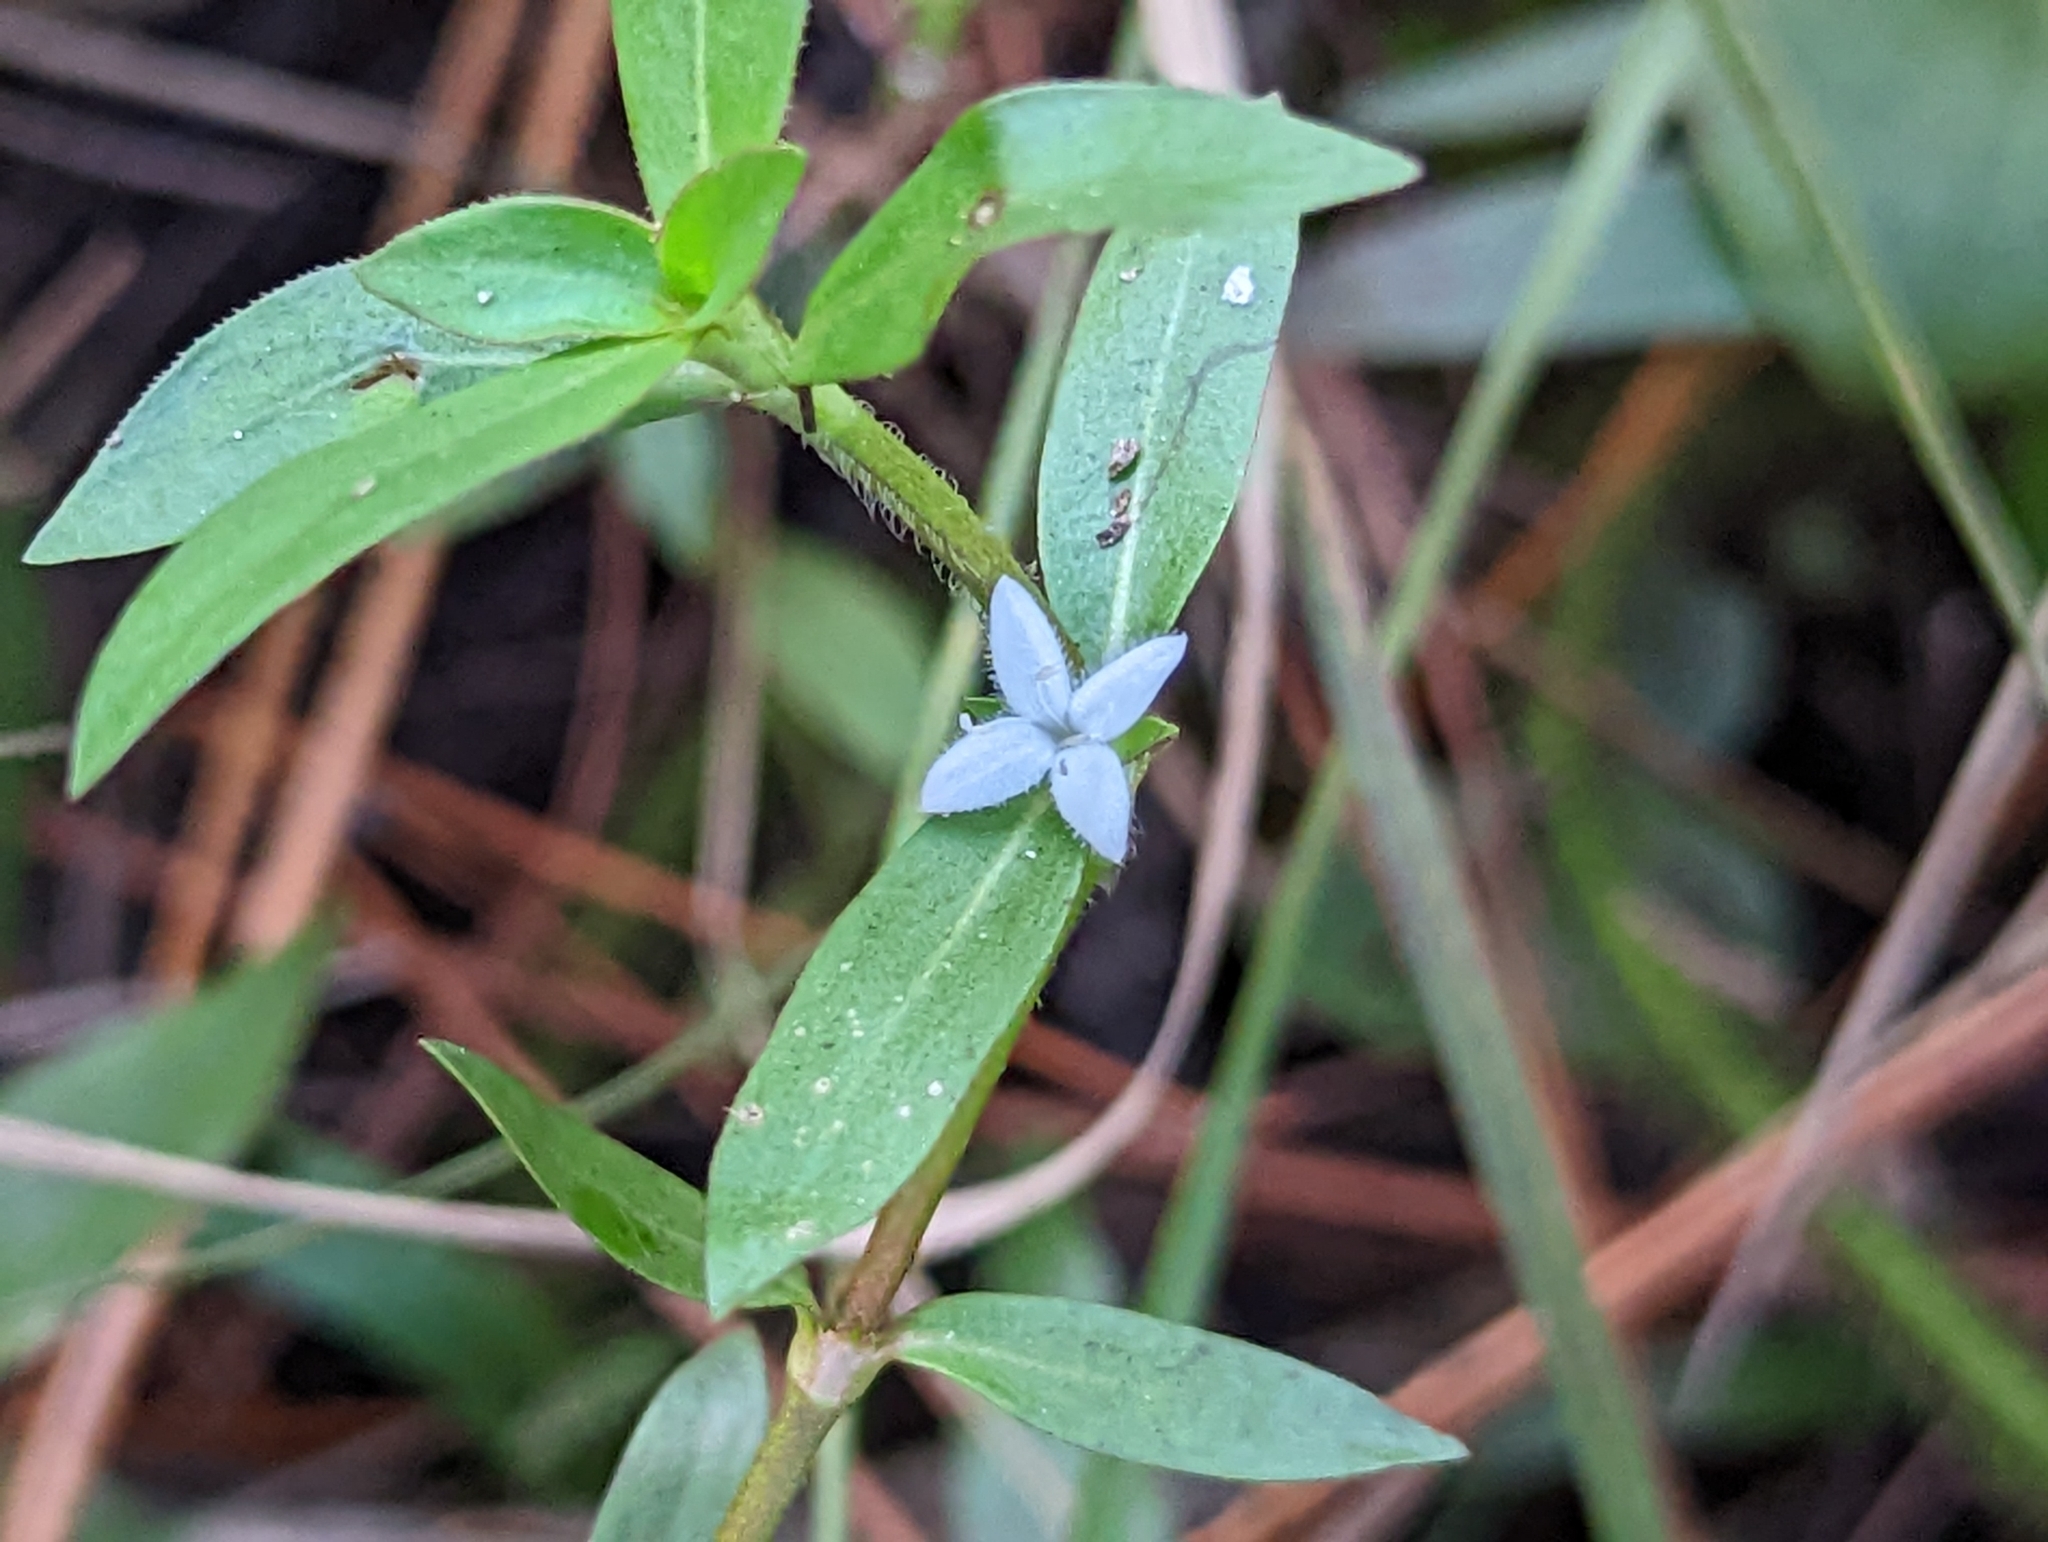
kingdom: Plantae
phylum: Tracheophyta
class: Magnoliopsida
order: Gentianales
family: Rubiaceae
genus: Diodia
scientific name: Diodia virginiana
